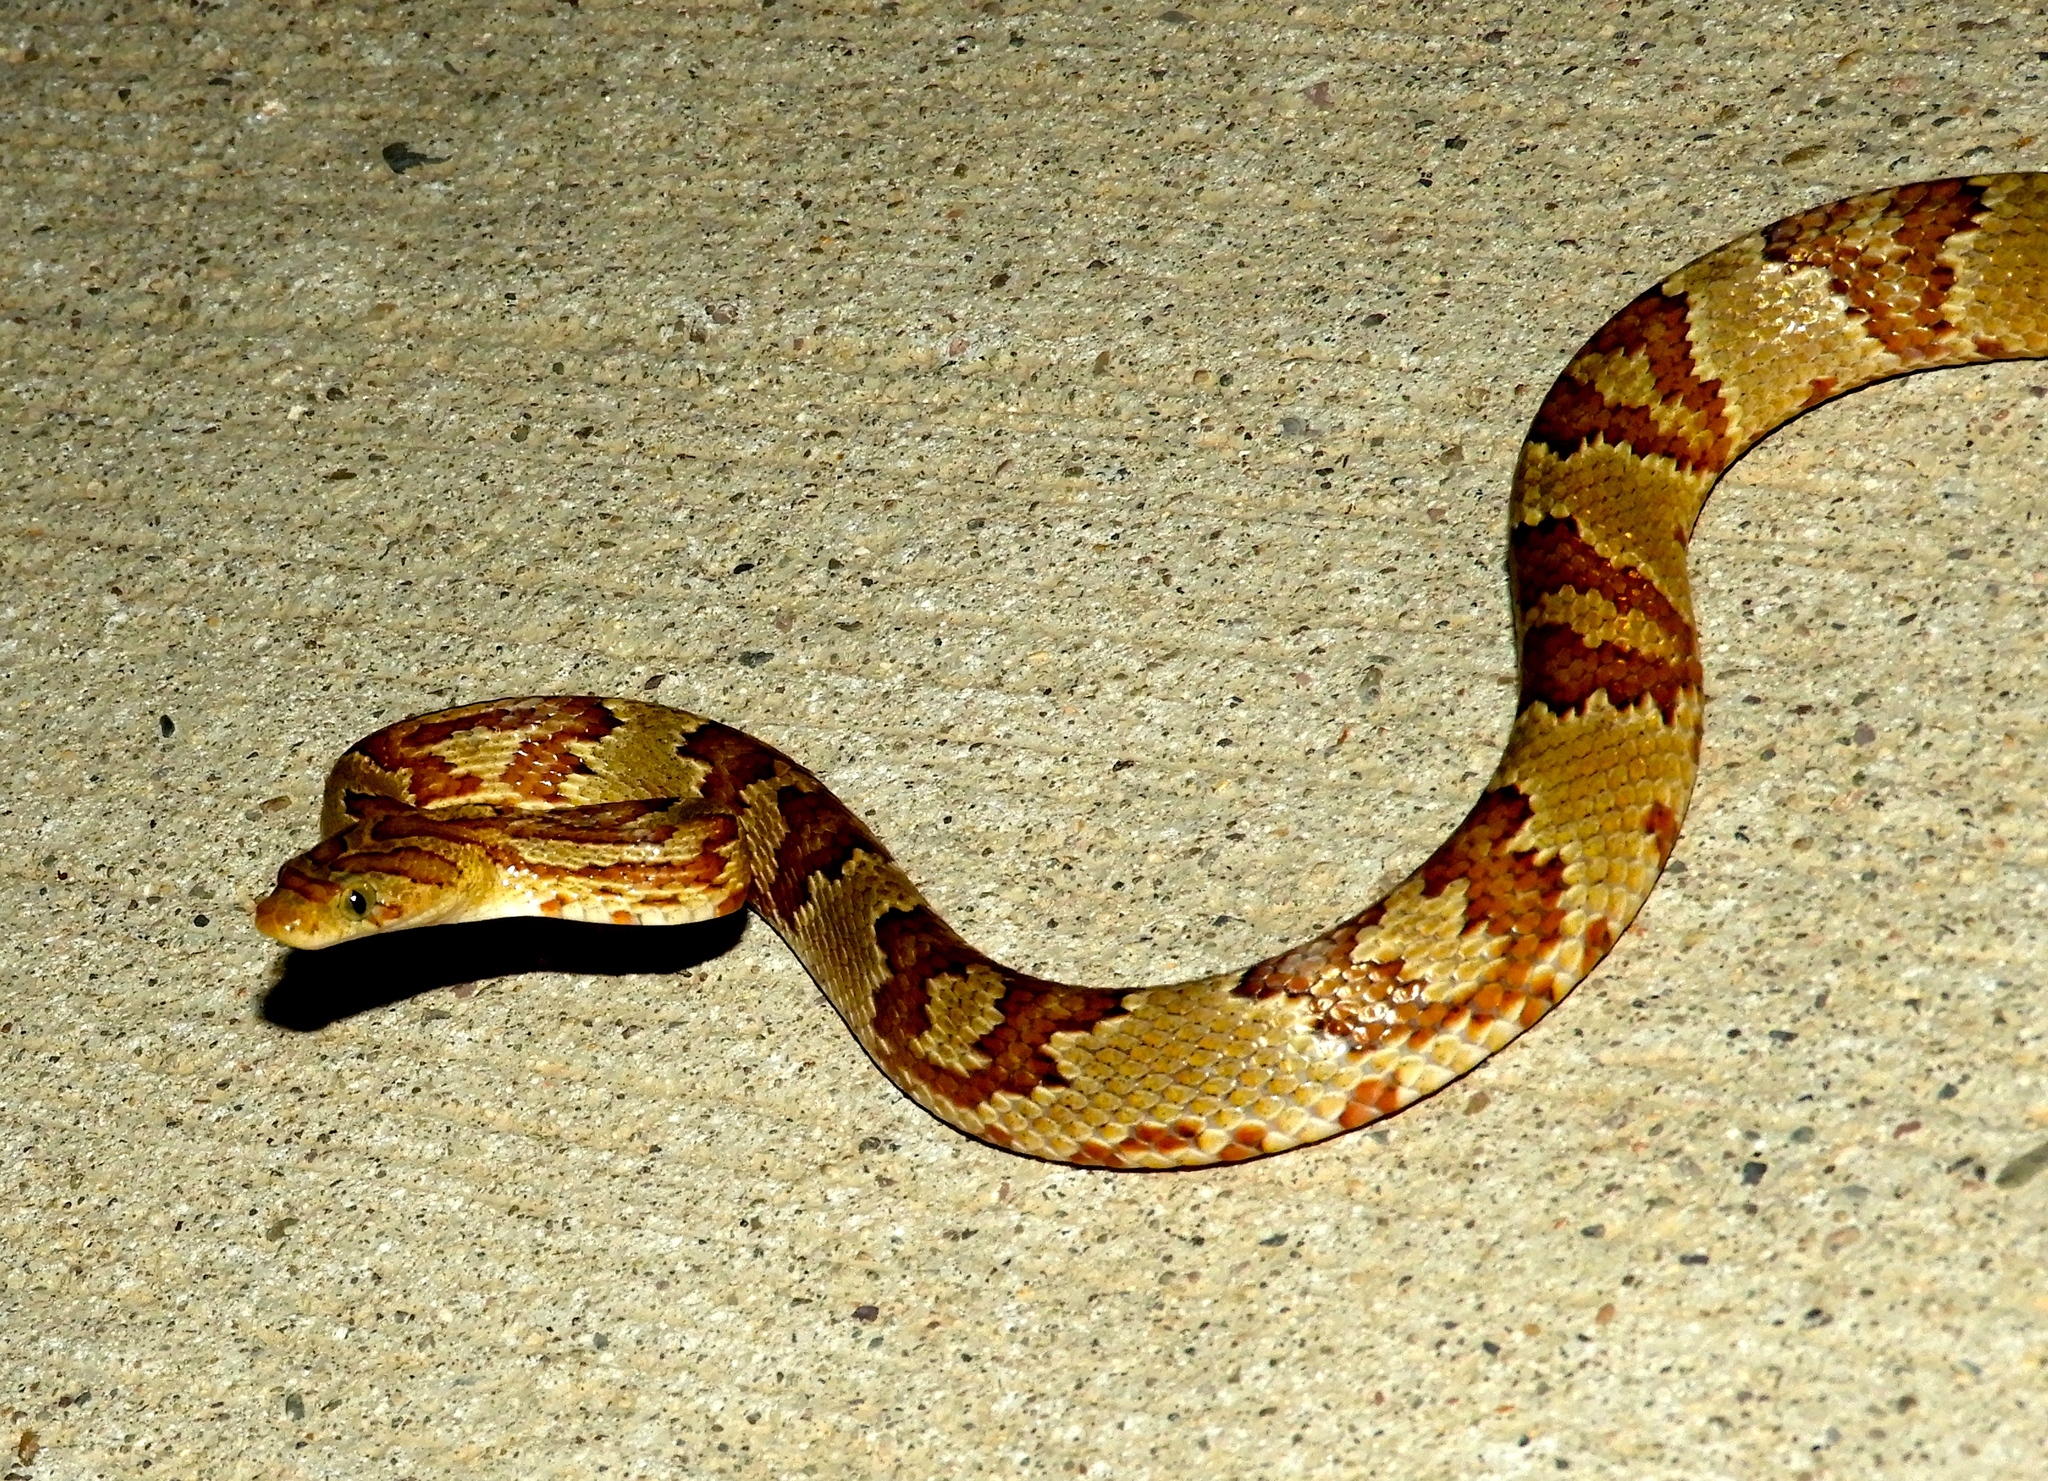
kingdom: Animalia
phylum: Chordata
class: Squamata
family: Colubridae
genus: Trimorphodon
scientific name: Trimorphodon paucimaculatus
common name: Sinaloan lyresnake
